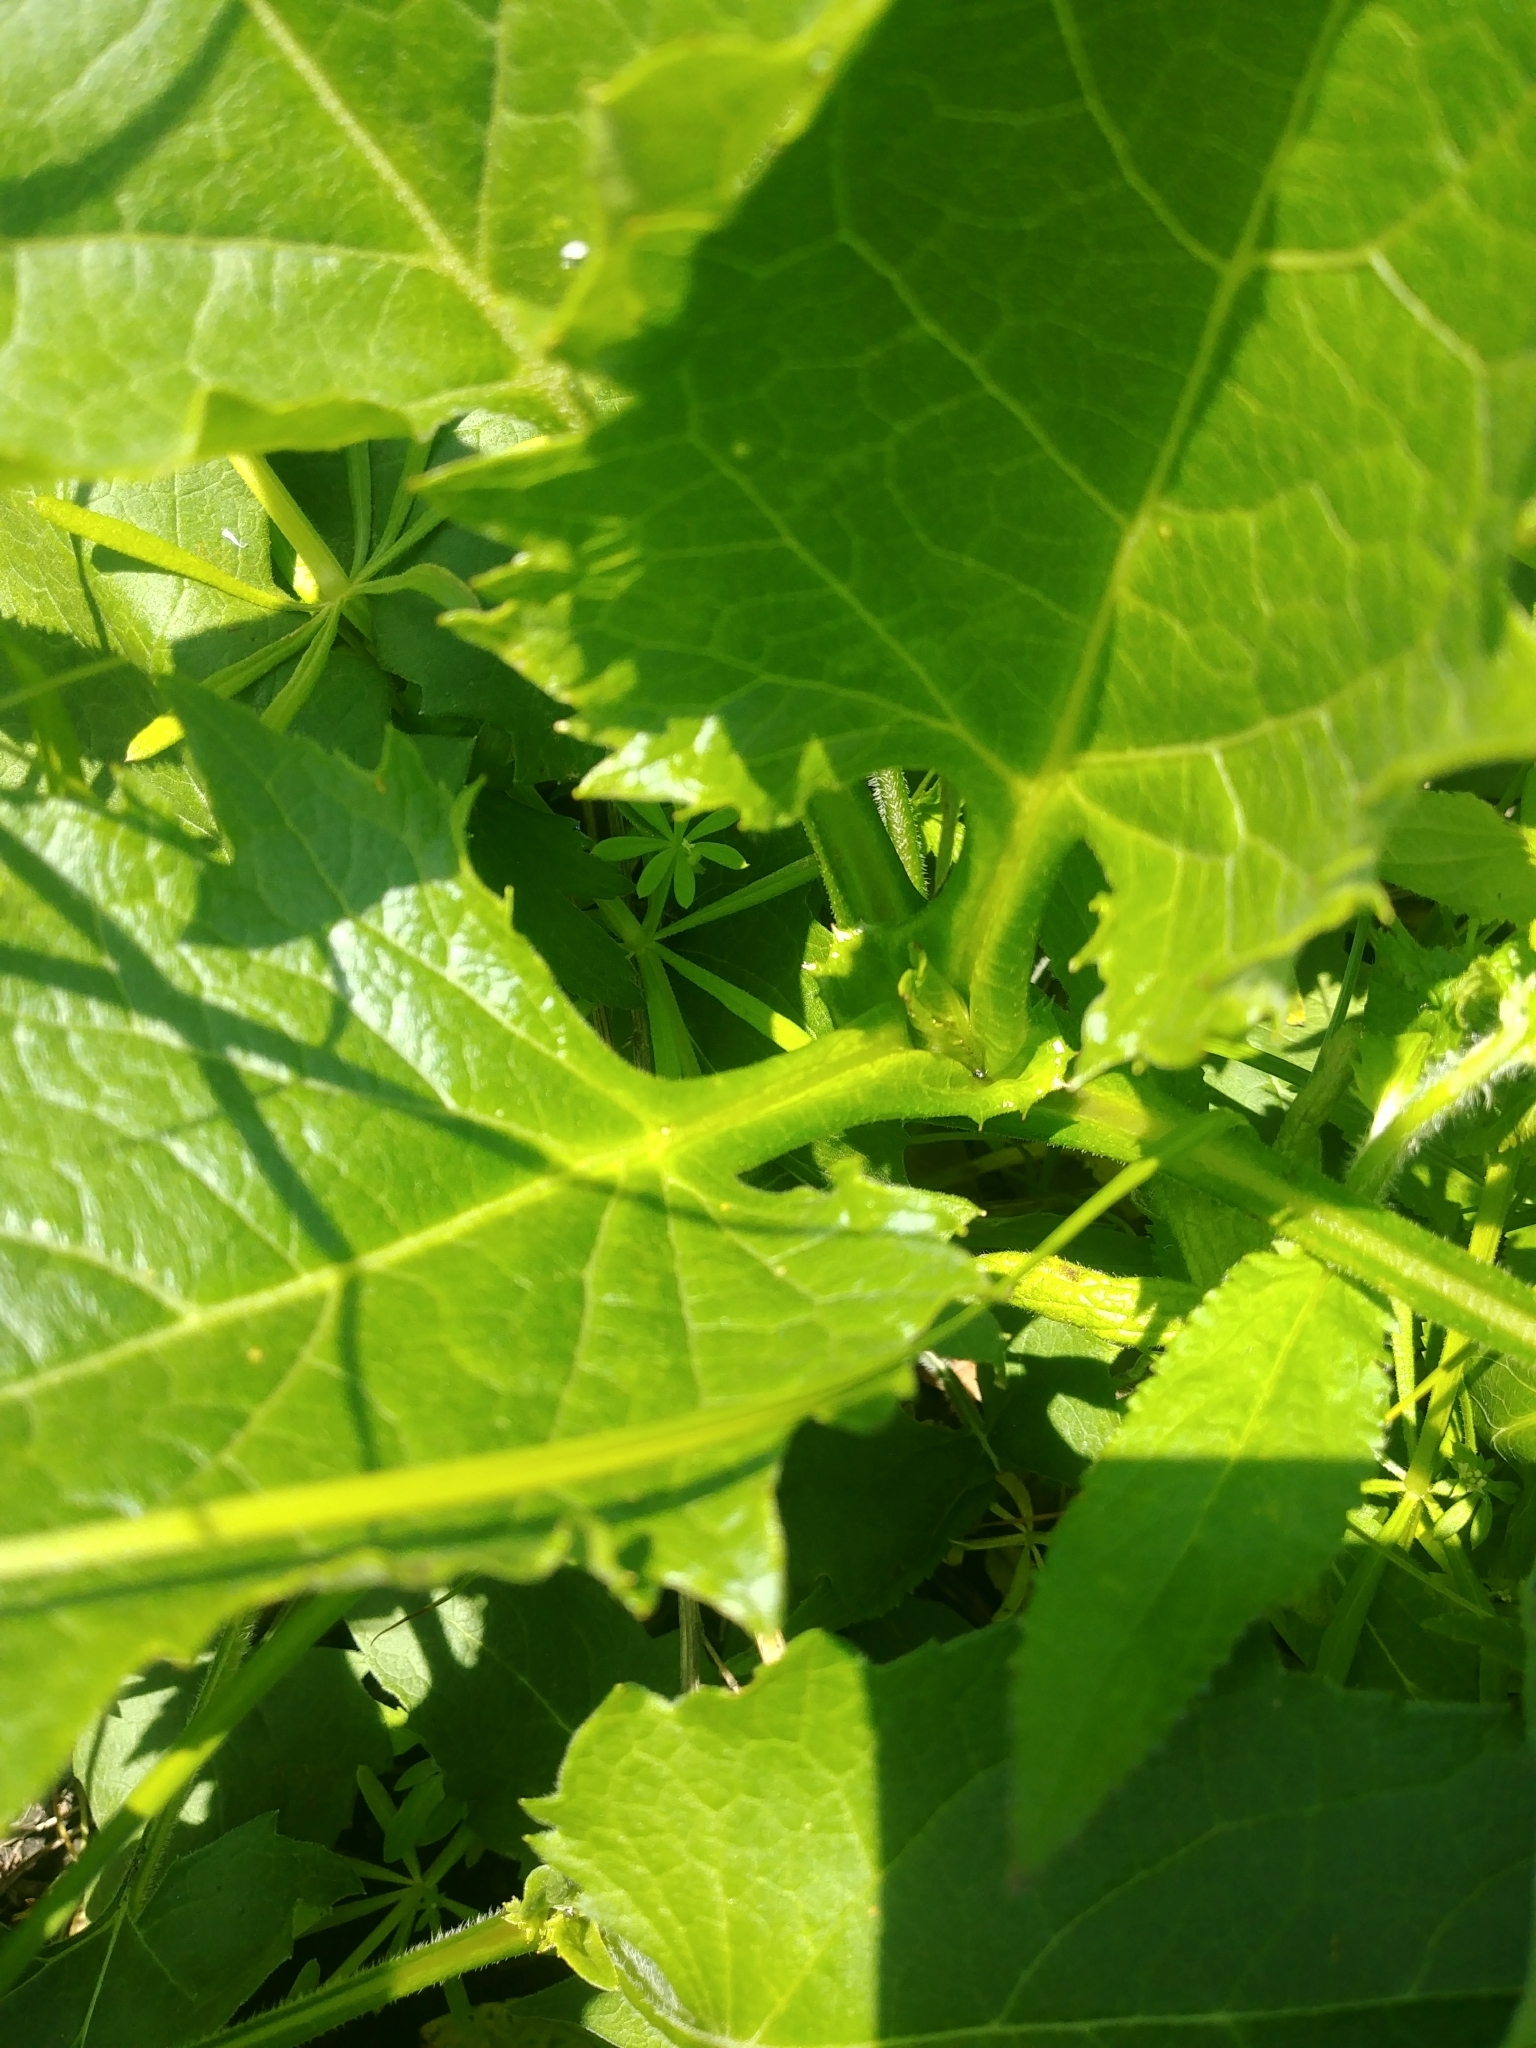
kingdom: Plantae
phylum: Tracheophyta
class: Magnoliopsida
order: Asterales
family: Asteraceae
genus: Silphium
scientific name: Silphium perfoliatum
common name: Cup-plant
